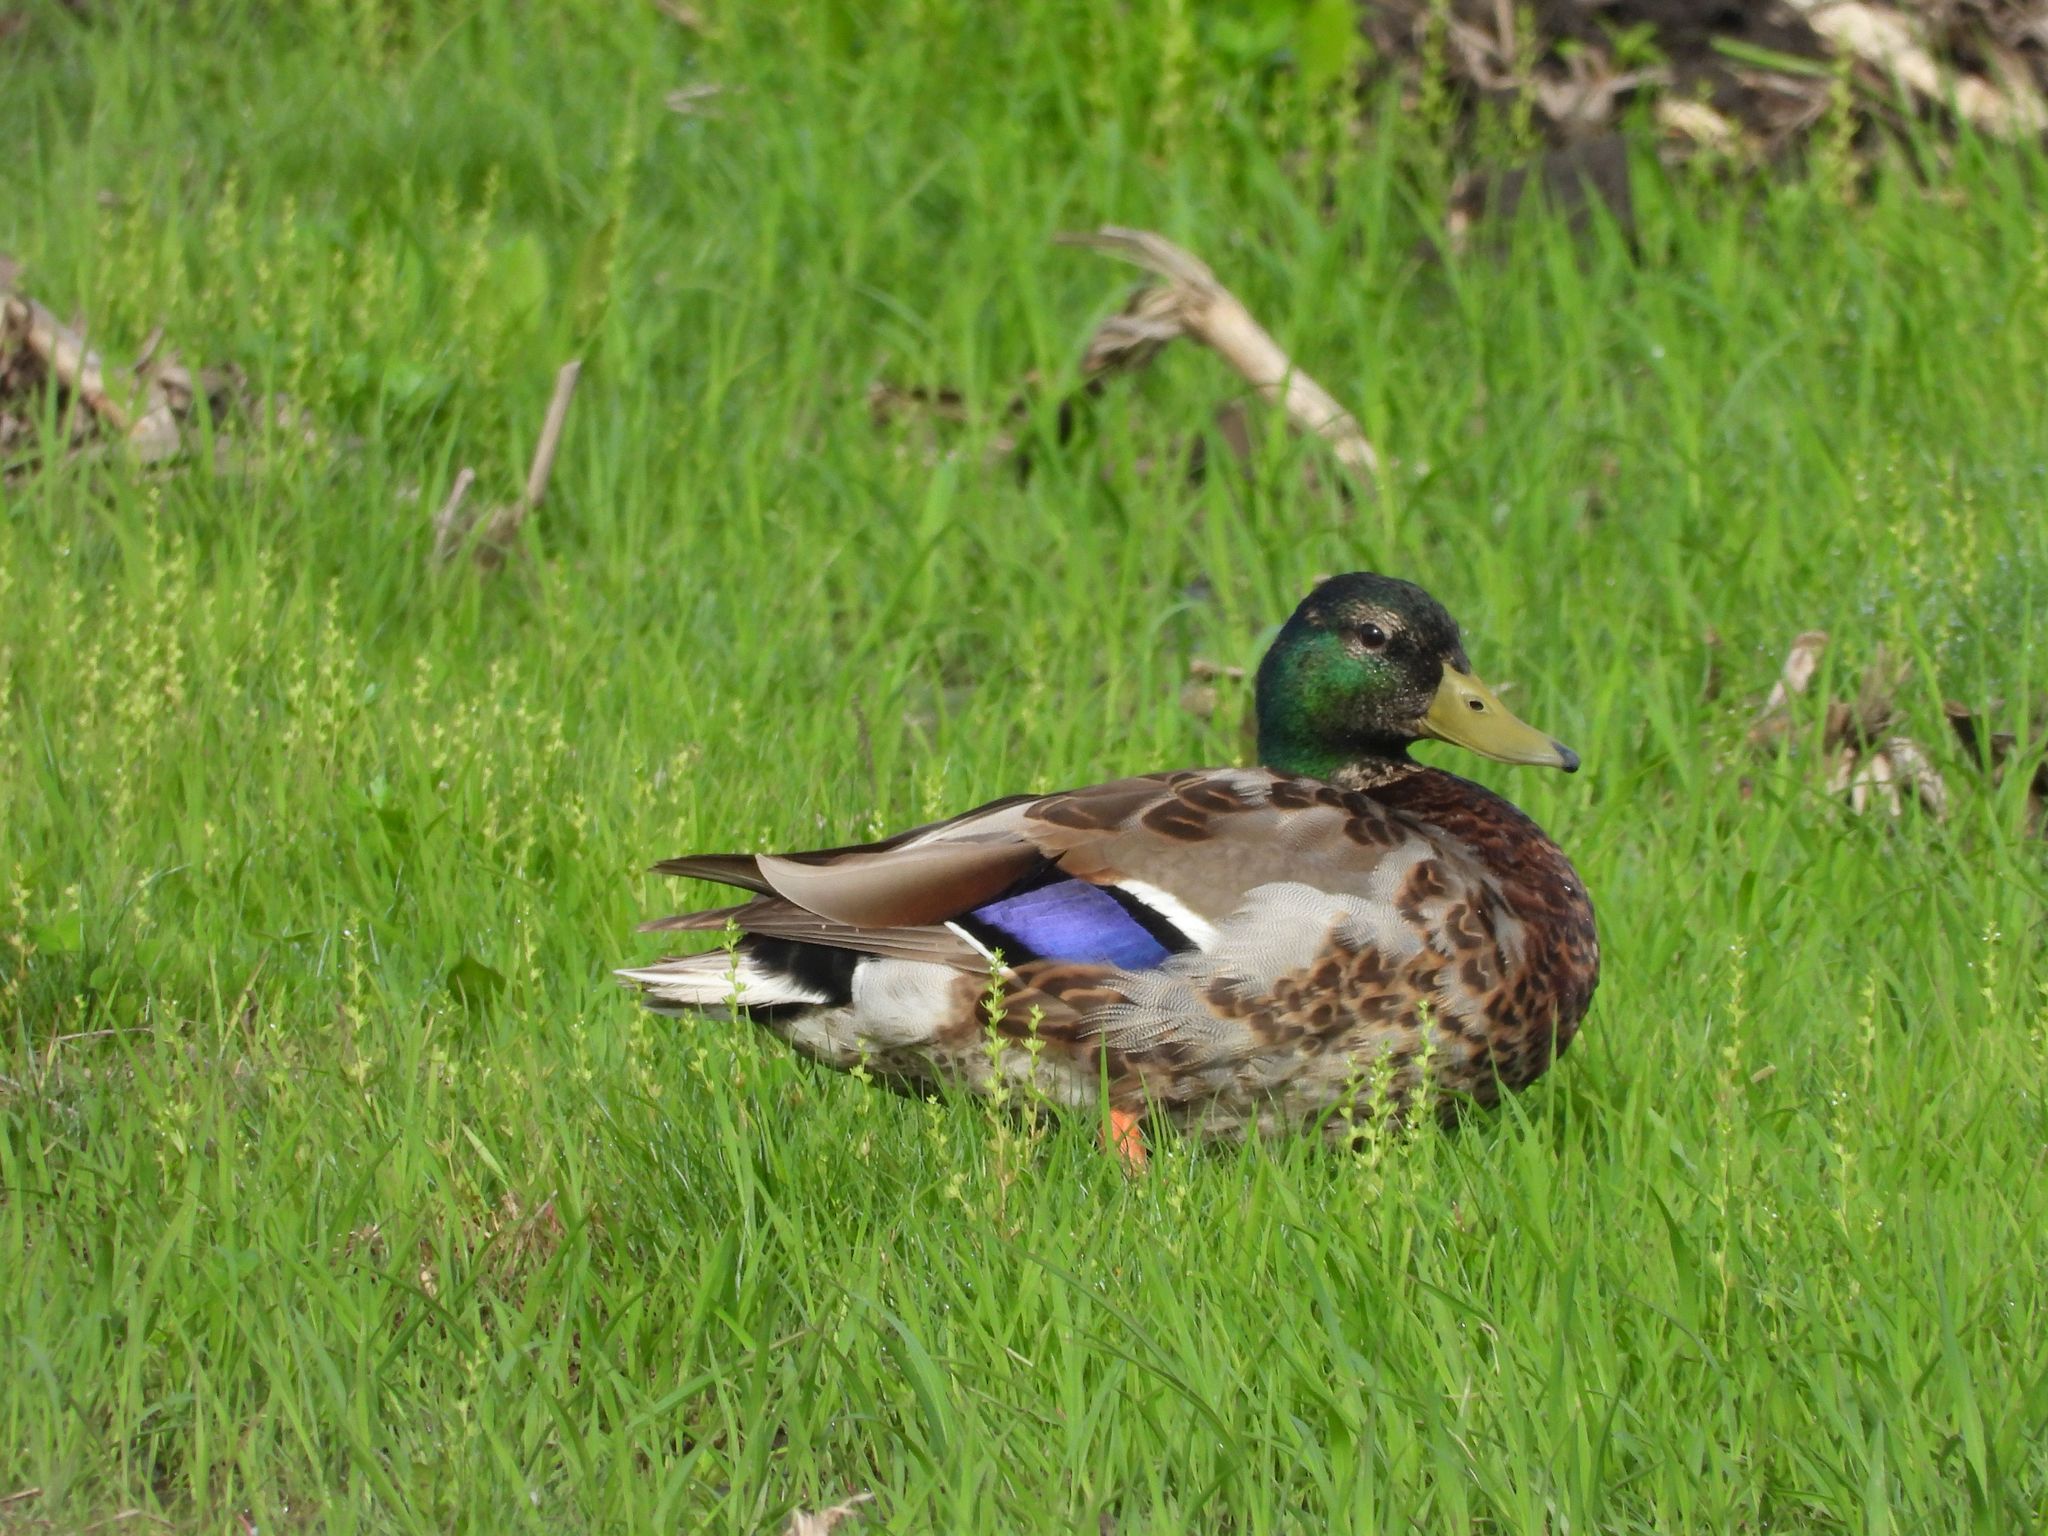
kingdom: Animalia
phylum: Chordata
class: Aves
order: Anseriformes
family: Anatidae
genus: Anas
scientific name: Anas platyrhynchos
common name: Mallard
